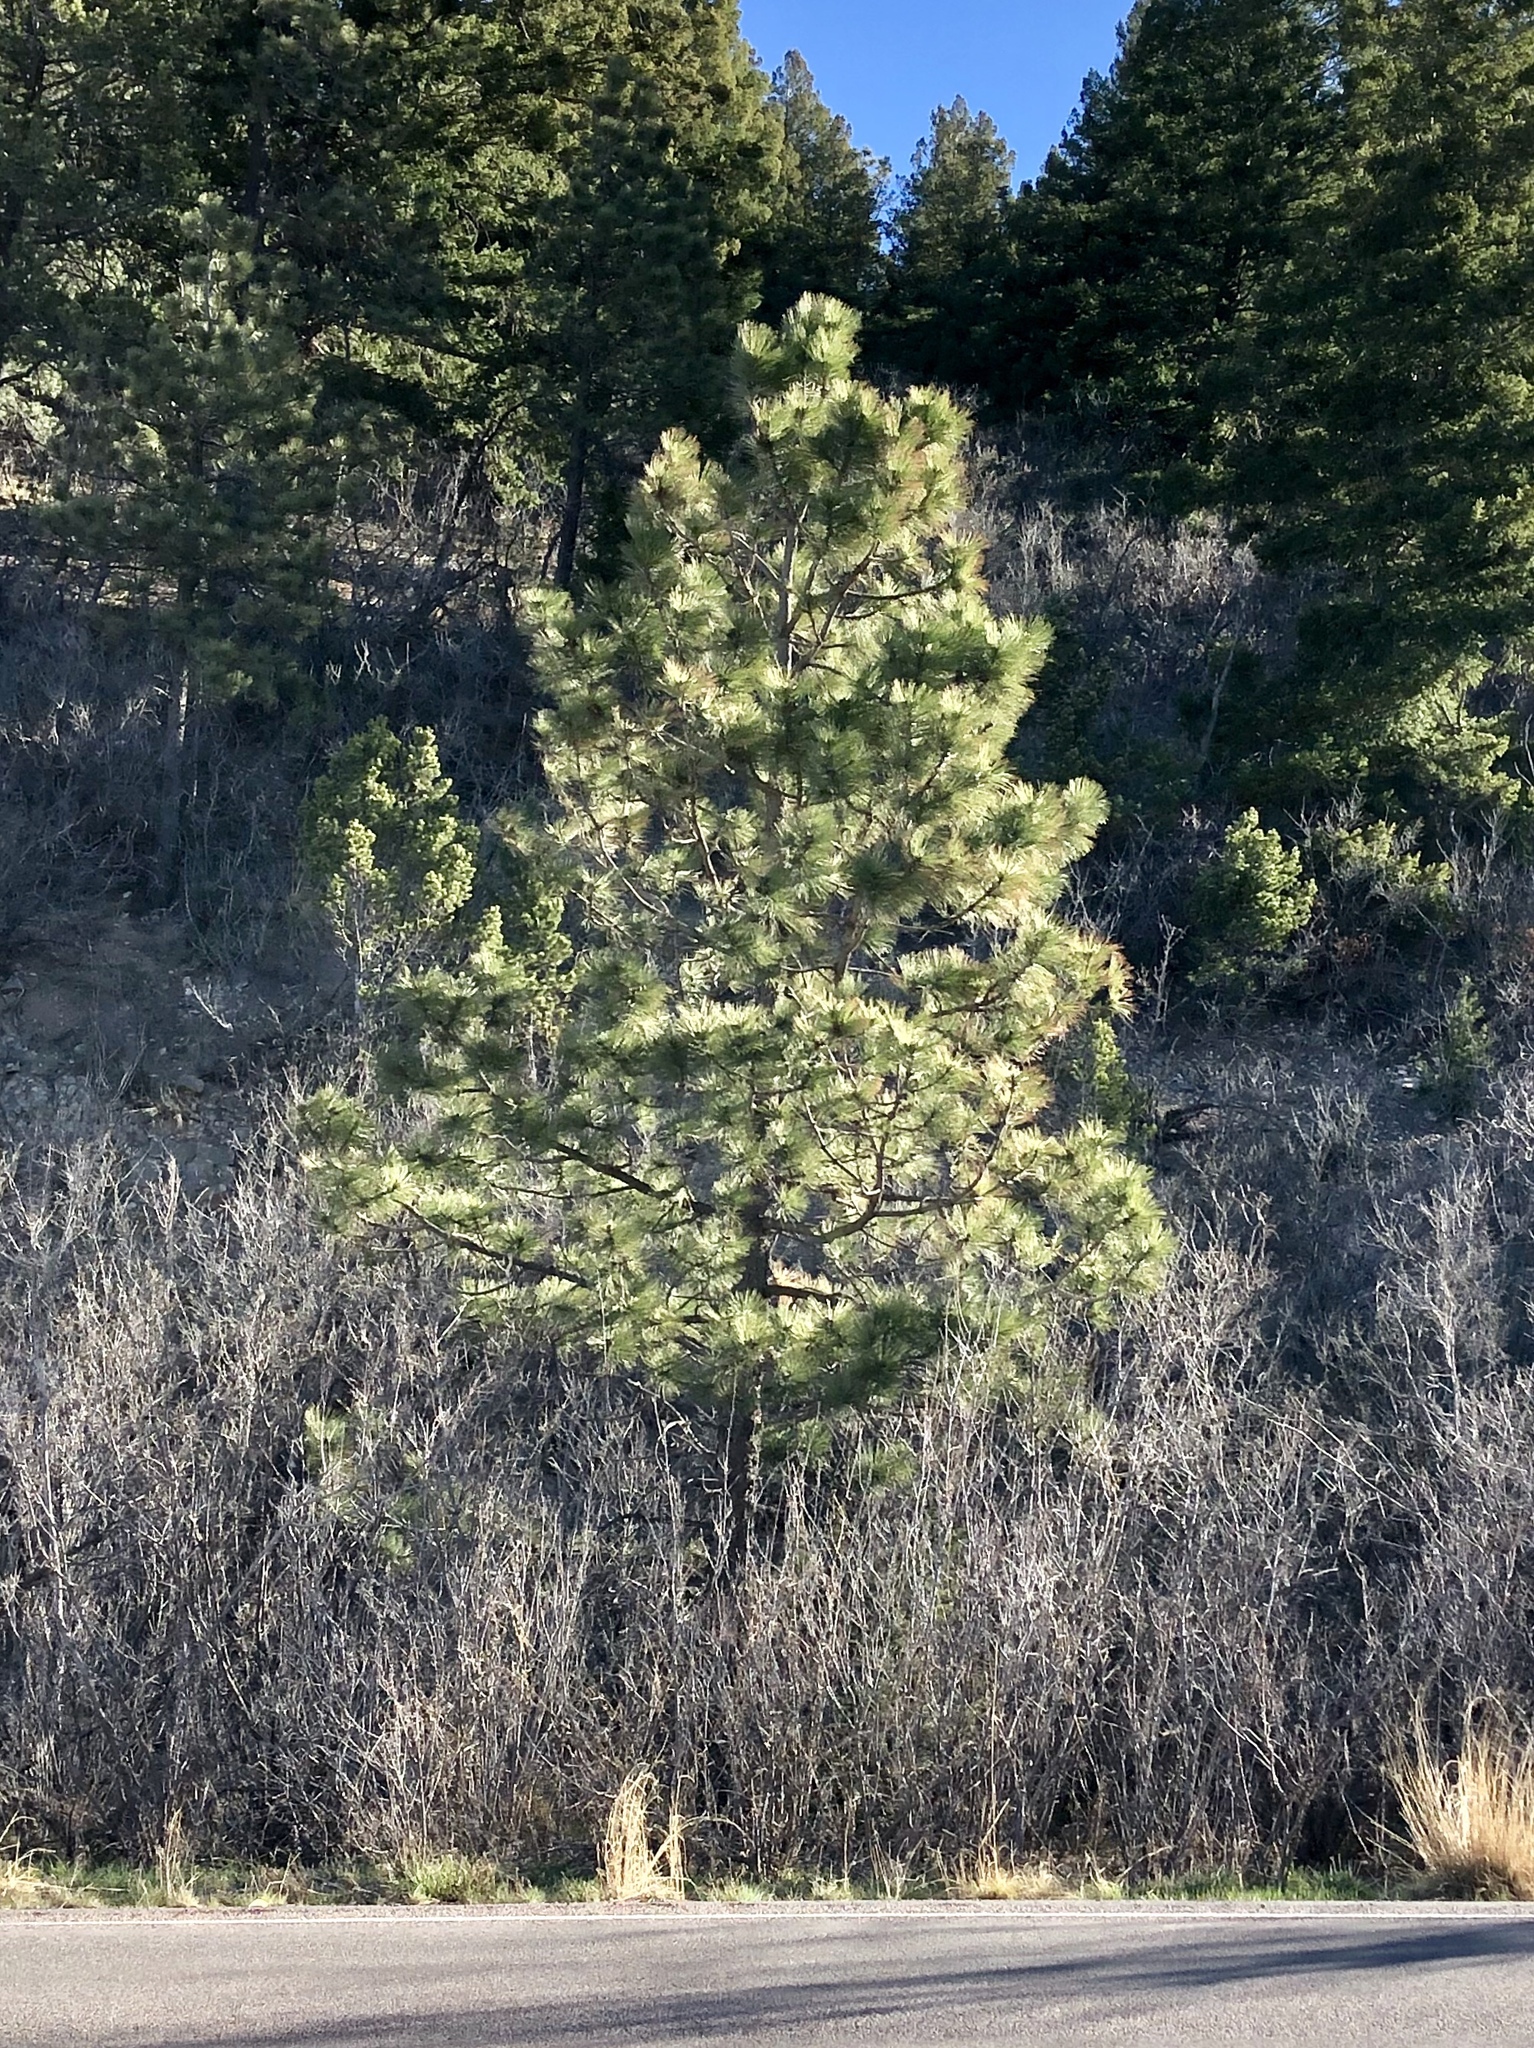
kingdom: Plantae
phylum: Tracheophyta
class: Pinopsida
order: Pinales
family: Pinaceae
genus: Pinus
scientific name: Pinus ponderosa
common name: Western yellow-pine
